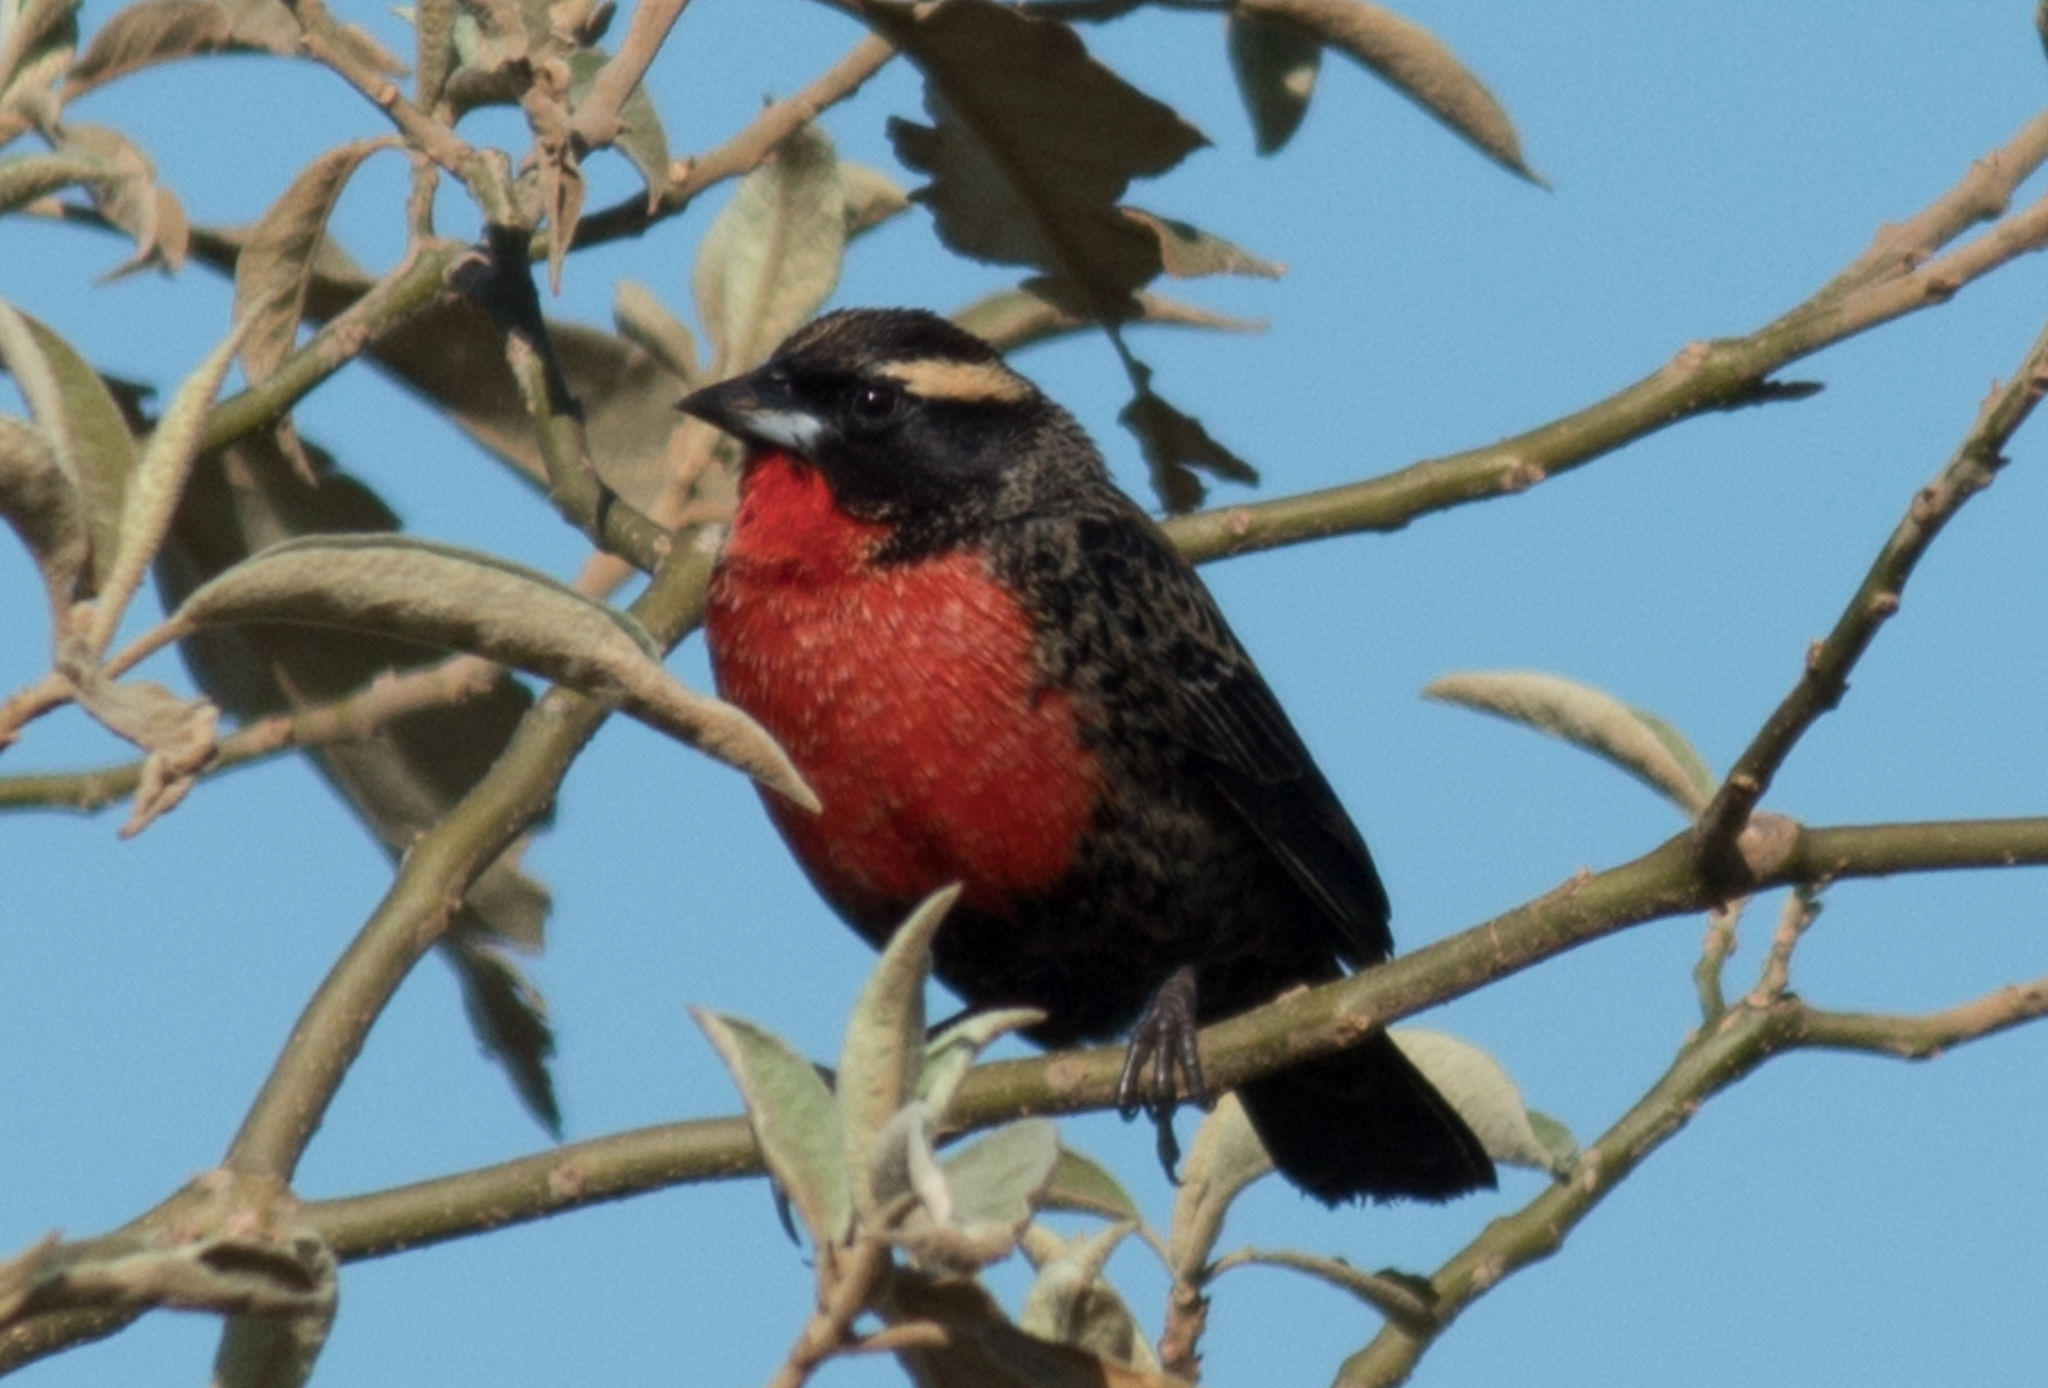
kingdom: Animalia
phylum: Chordata
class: Aves
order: Passeriformes
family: Icteridae
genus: Sturnella
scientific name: Sturnella superciliaris
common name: White-browed blackbird
